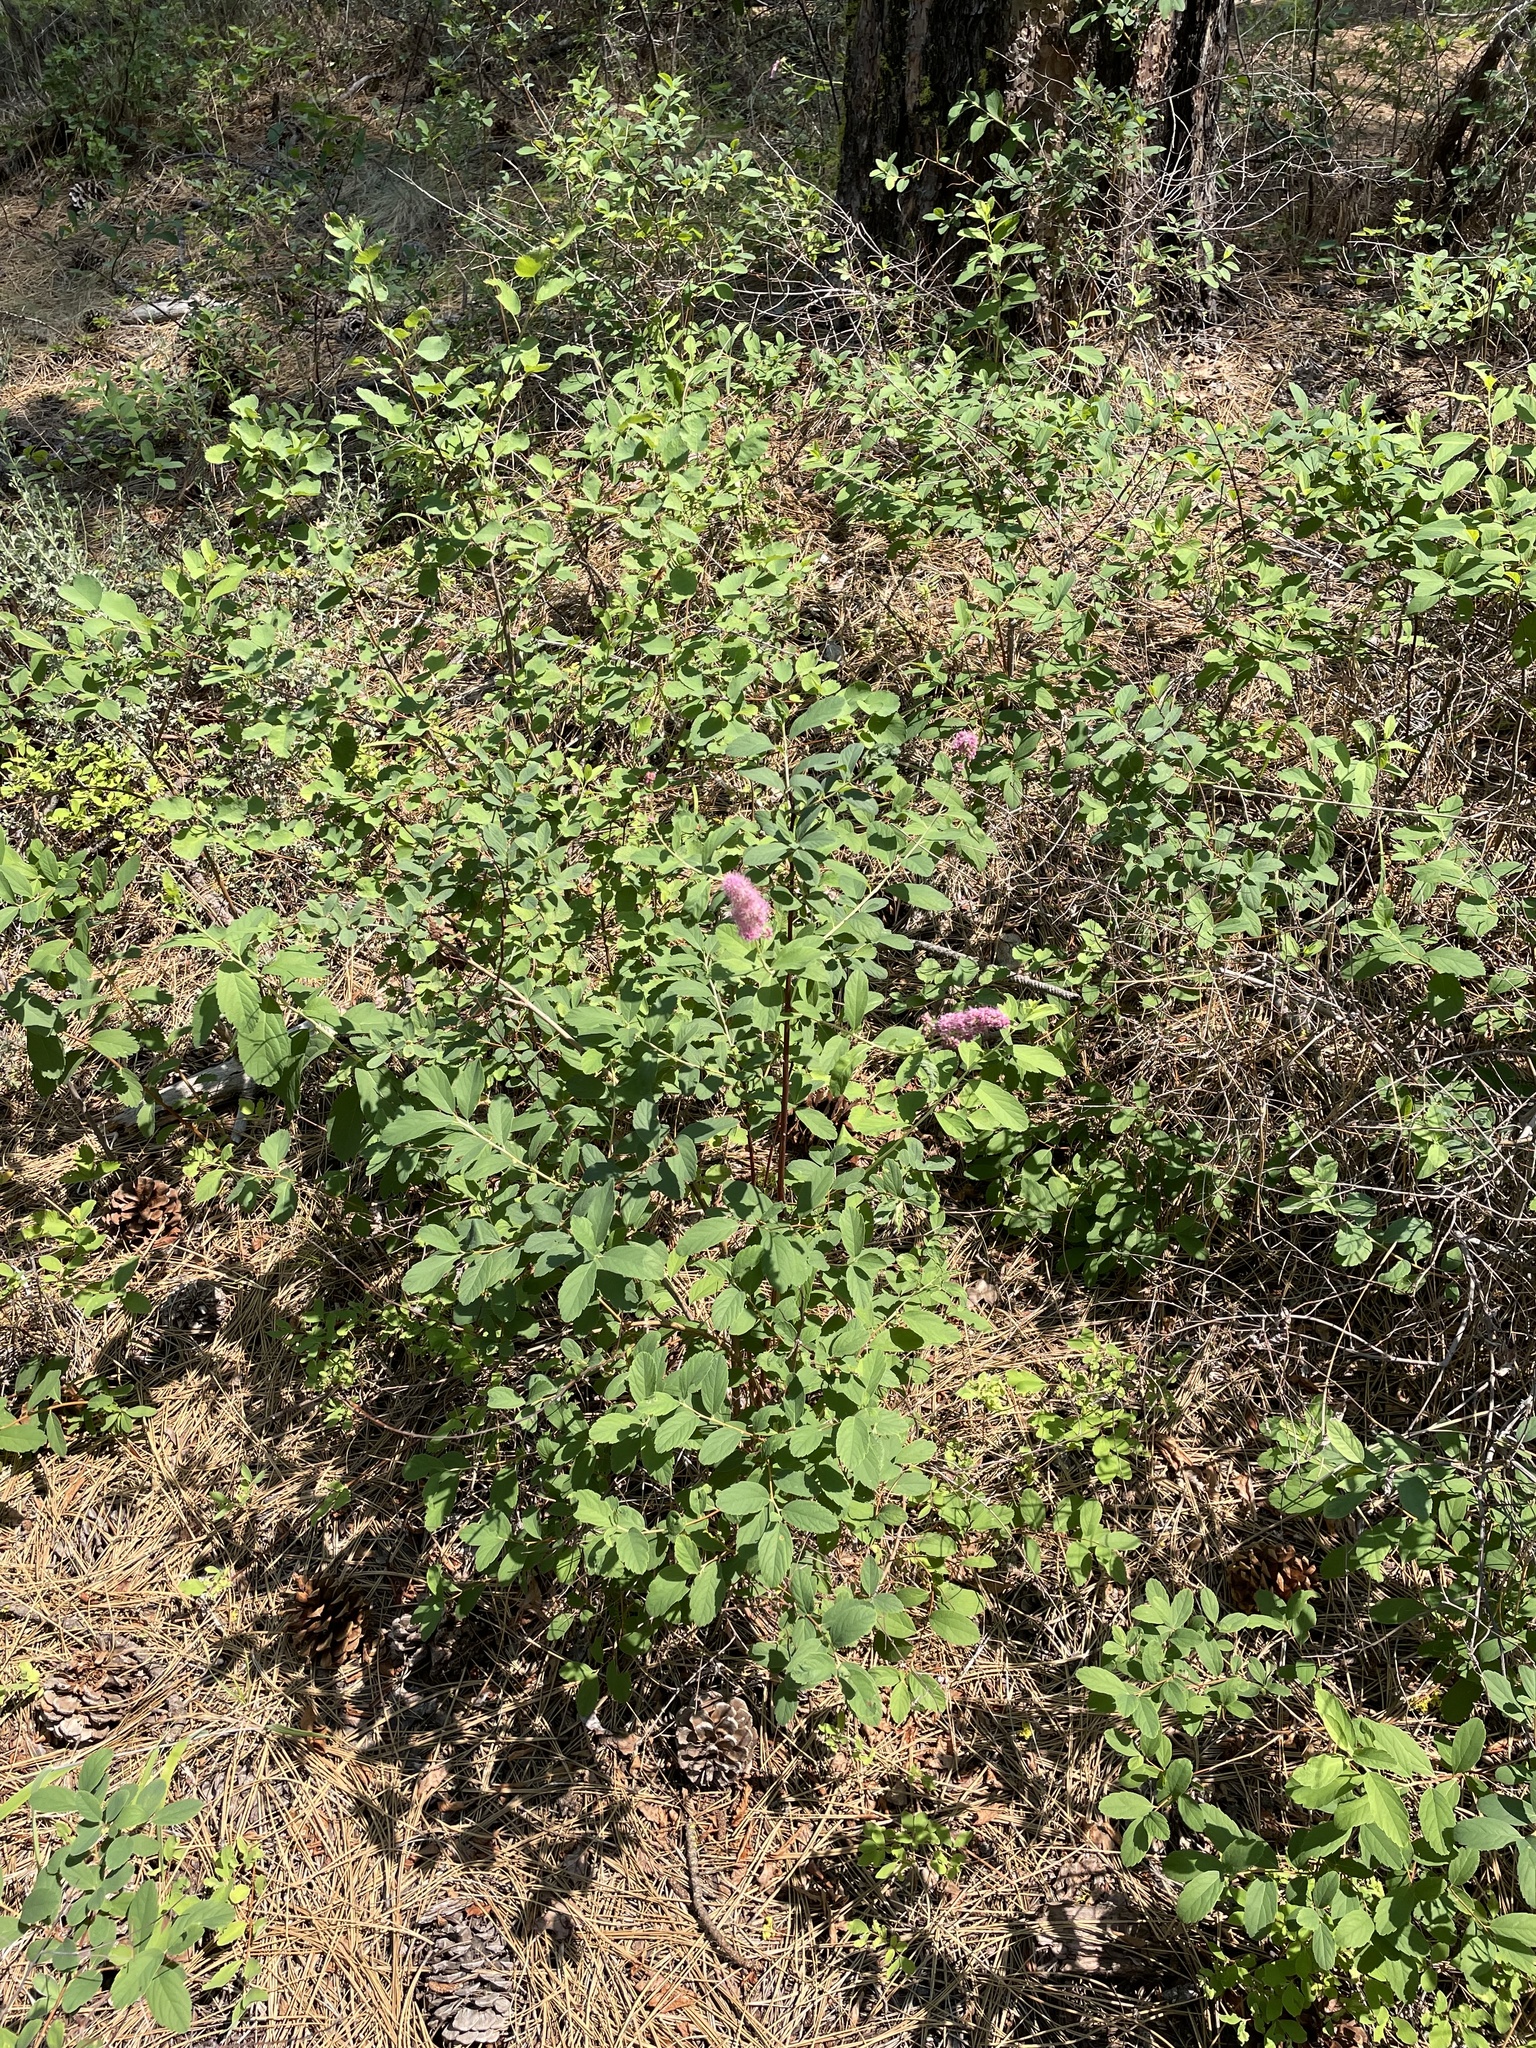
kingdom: Plantae
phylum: Tracheophyta
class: Magnoliopsida
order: Rosales
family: Rosaceae
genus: Spiraea
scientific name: Spiraea douglasii
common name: Steeplebush
